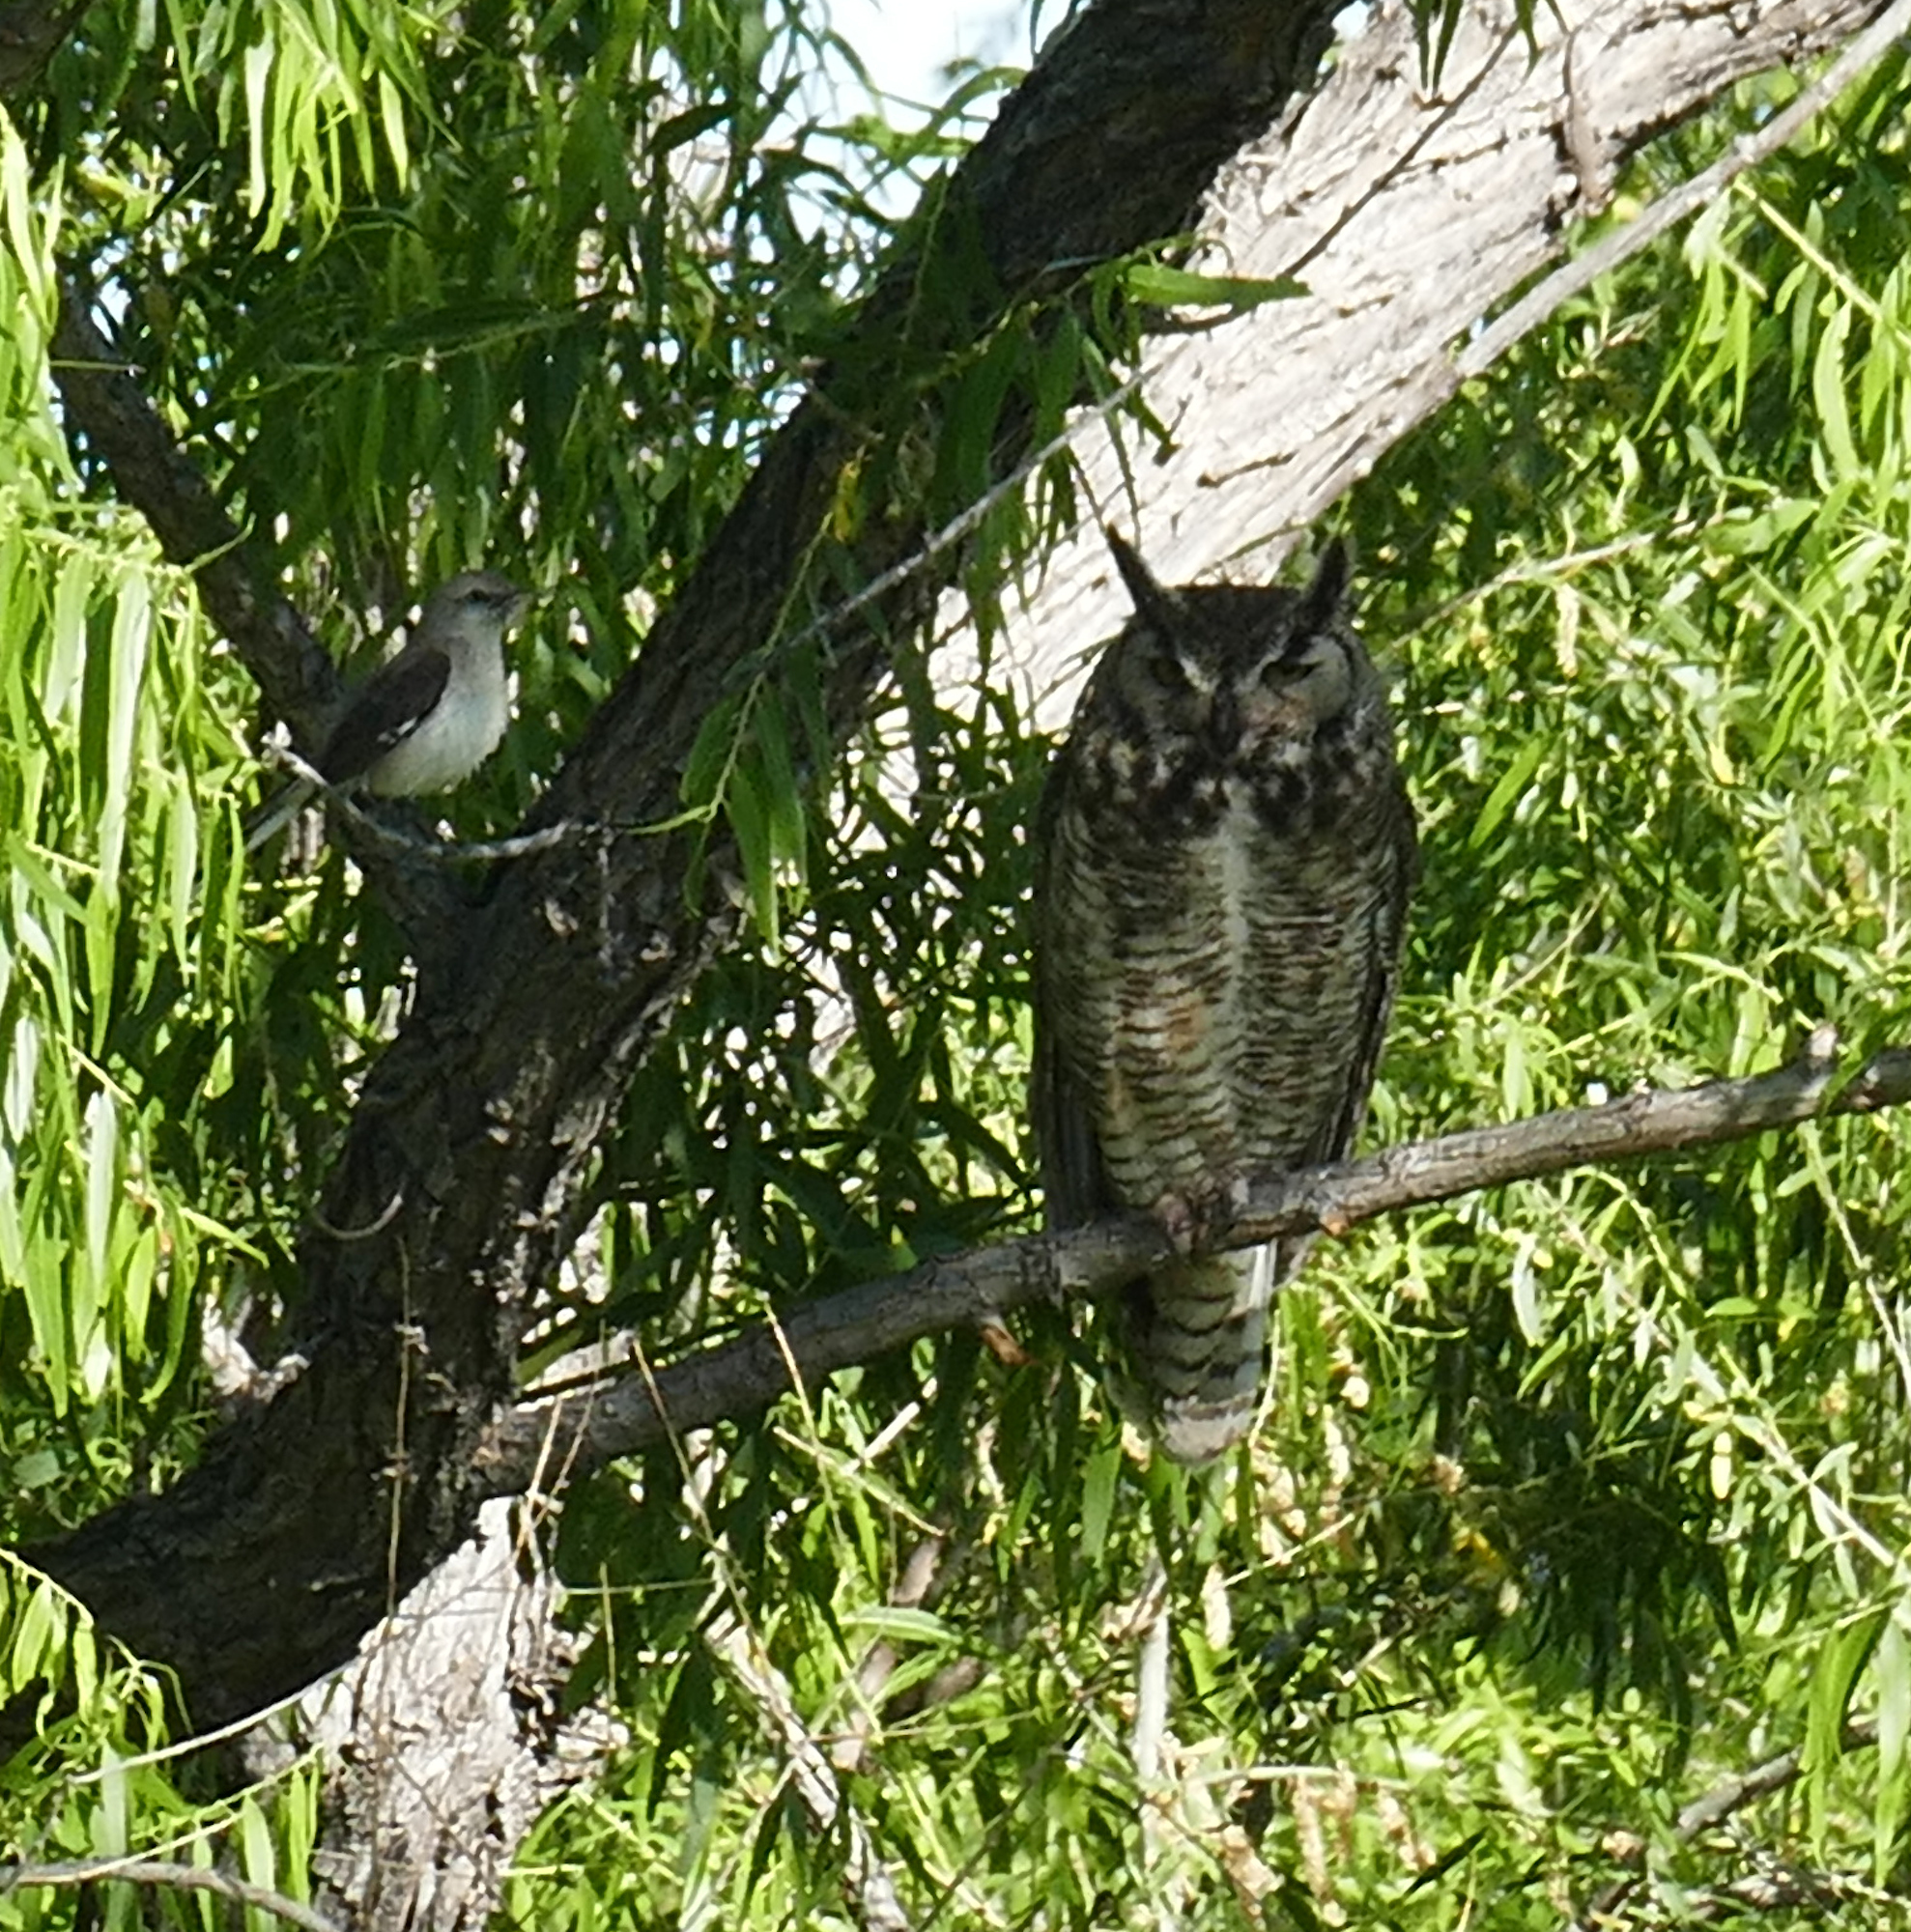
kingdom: Animalia
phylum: Chordata
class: Aves
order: Passeriformes
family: Mimidae
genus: Mimus
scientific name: Mimus polyglottos
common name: Northern mockingbird
